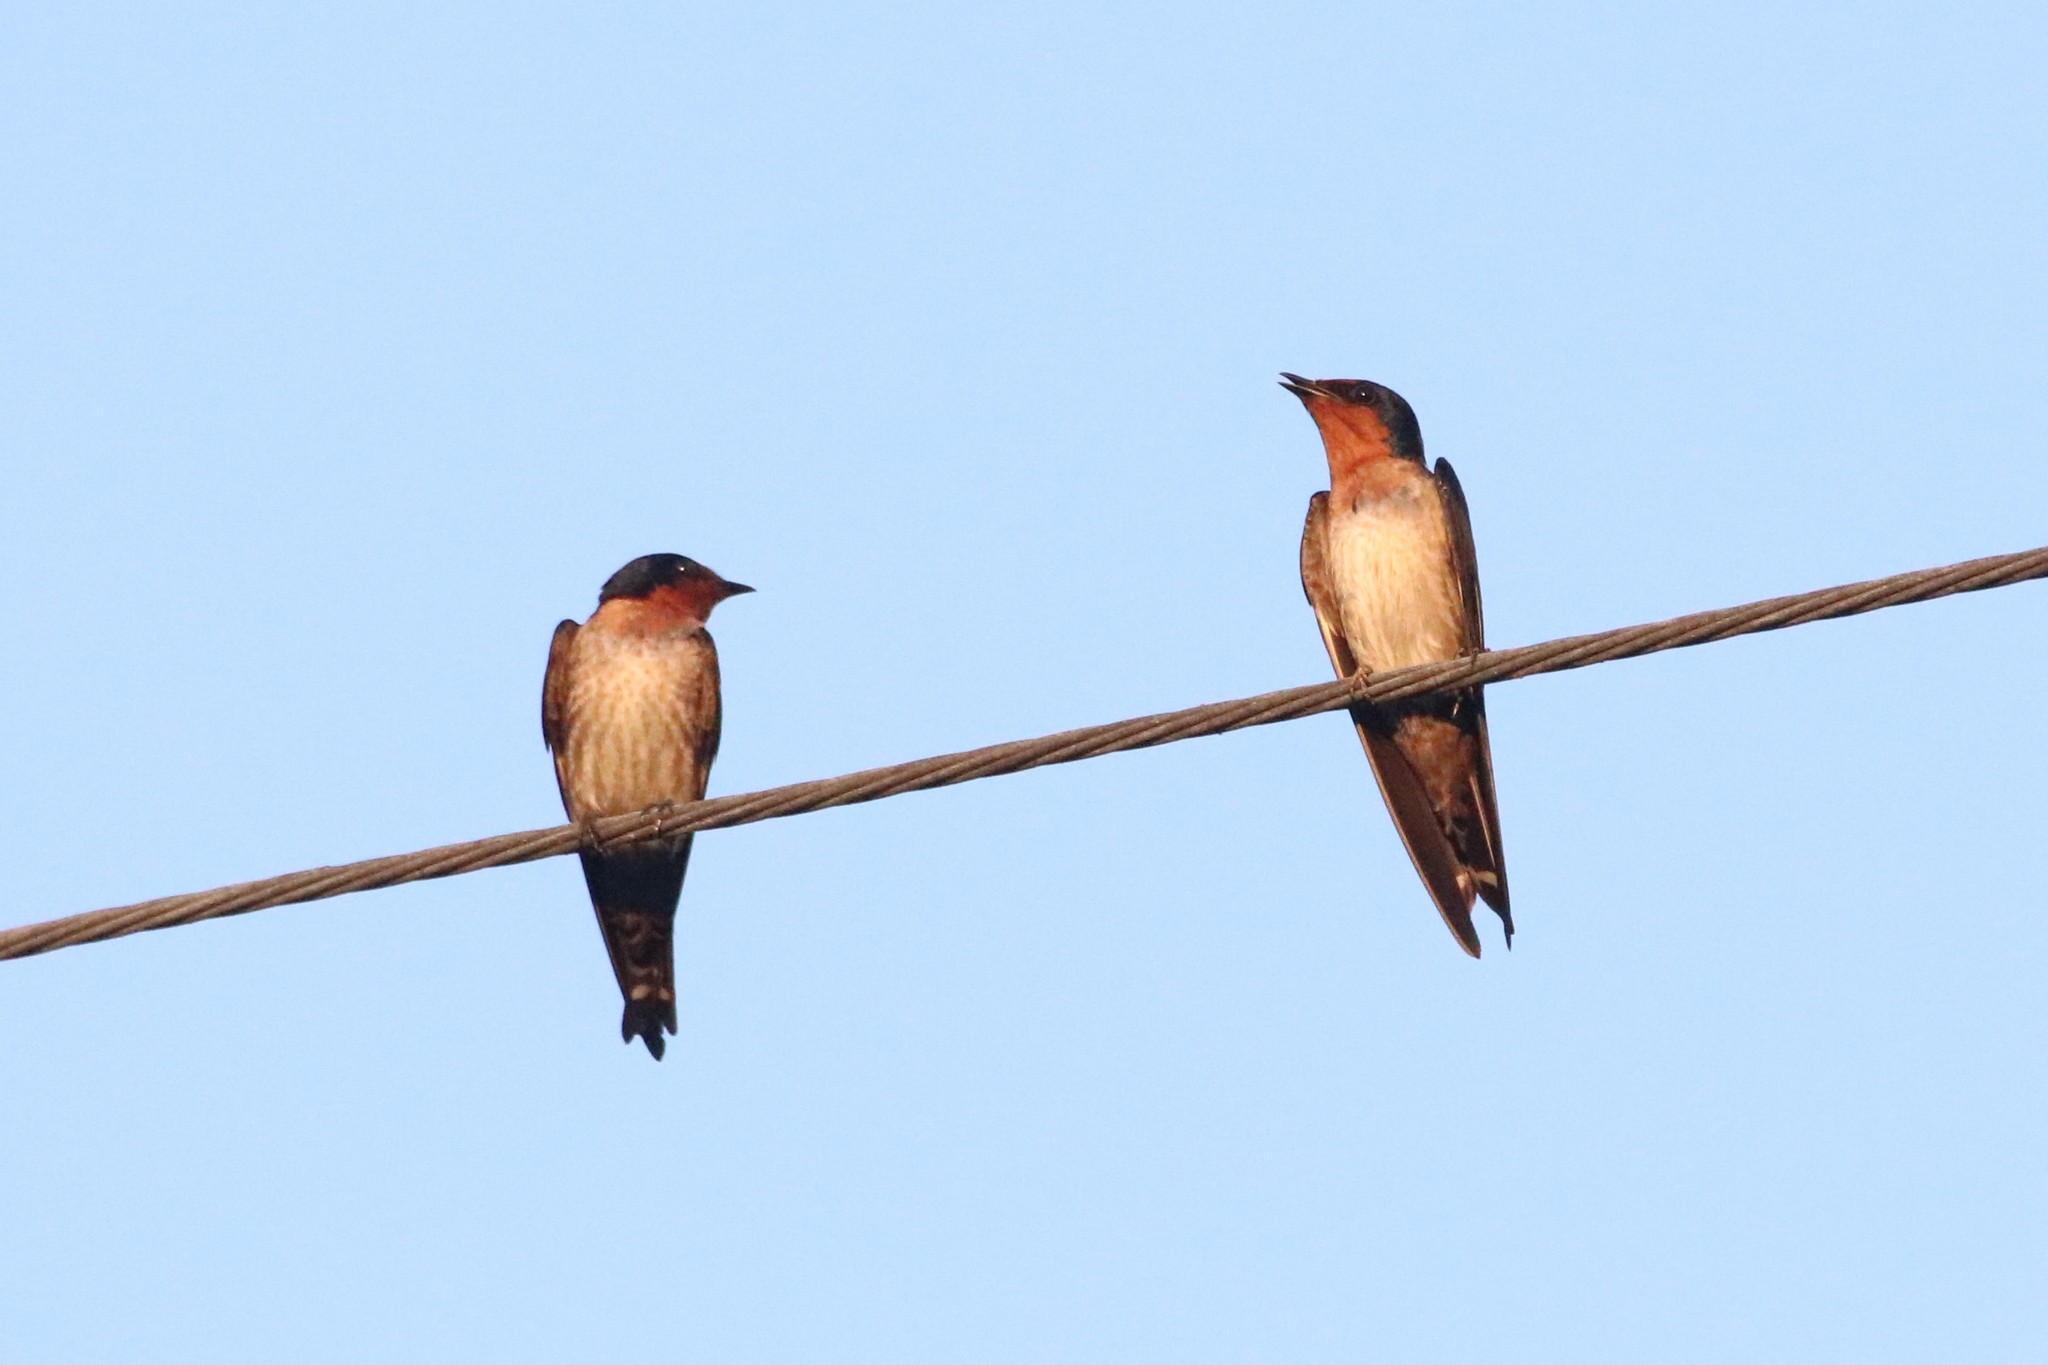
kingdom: Animalia
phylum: Chordata
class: Aves
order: Passeriformes
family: Hirundinidae
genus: Hirundo
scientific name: Hirundo tahitica
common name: Pacific swallow
